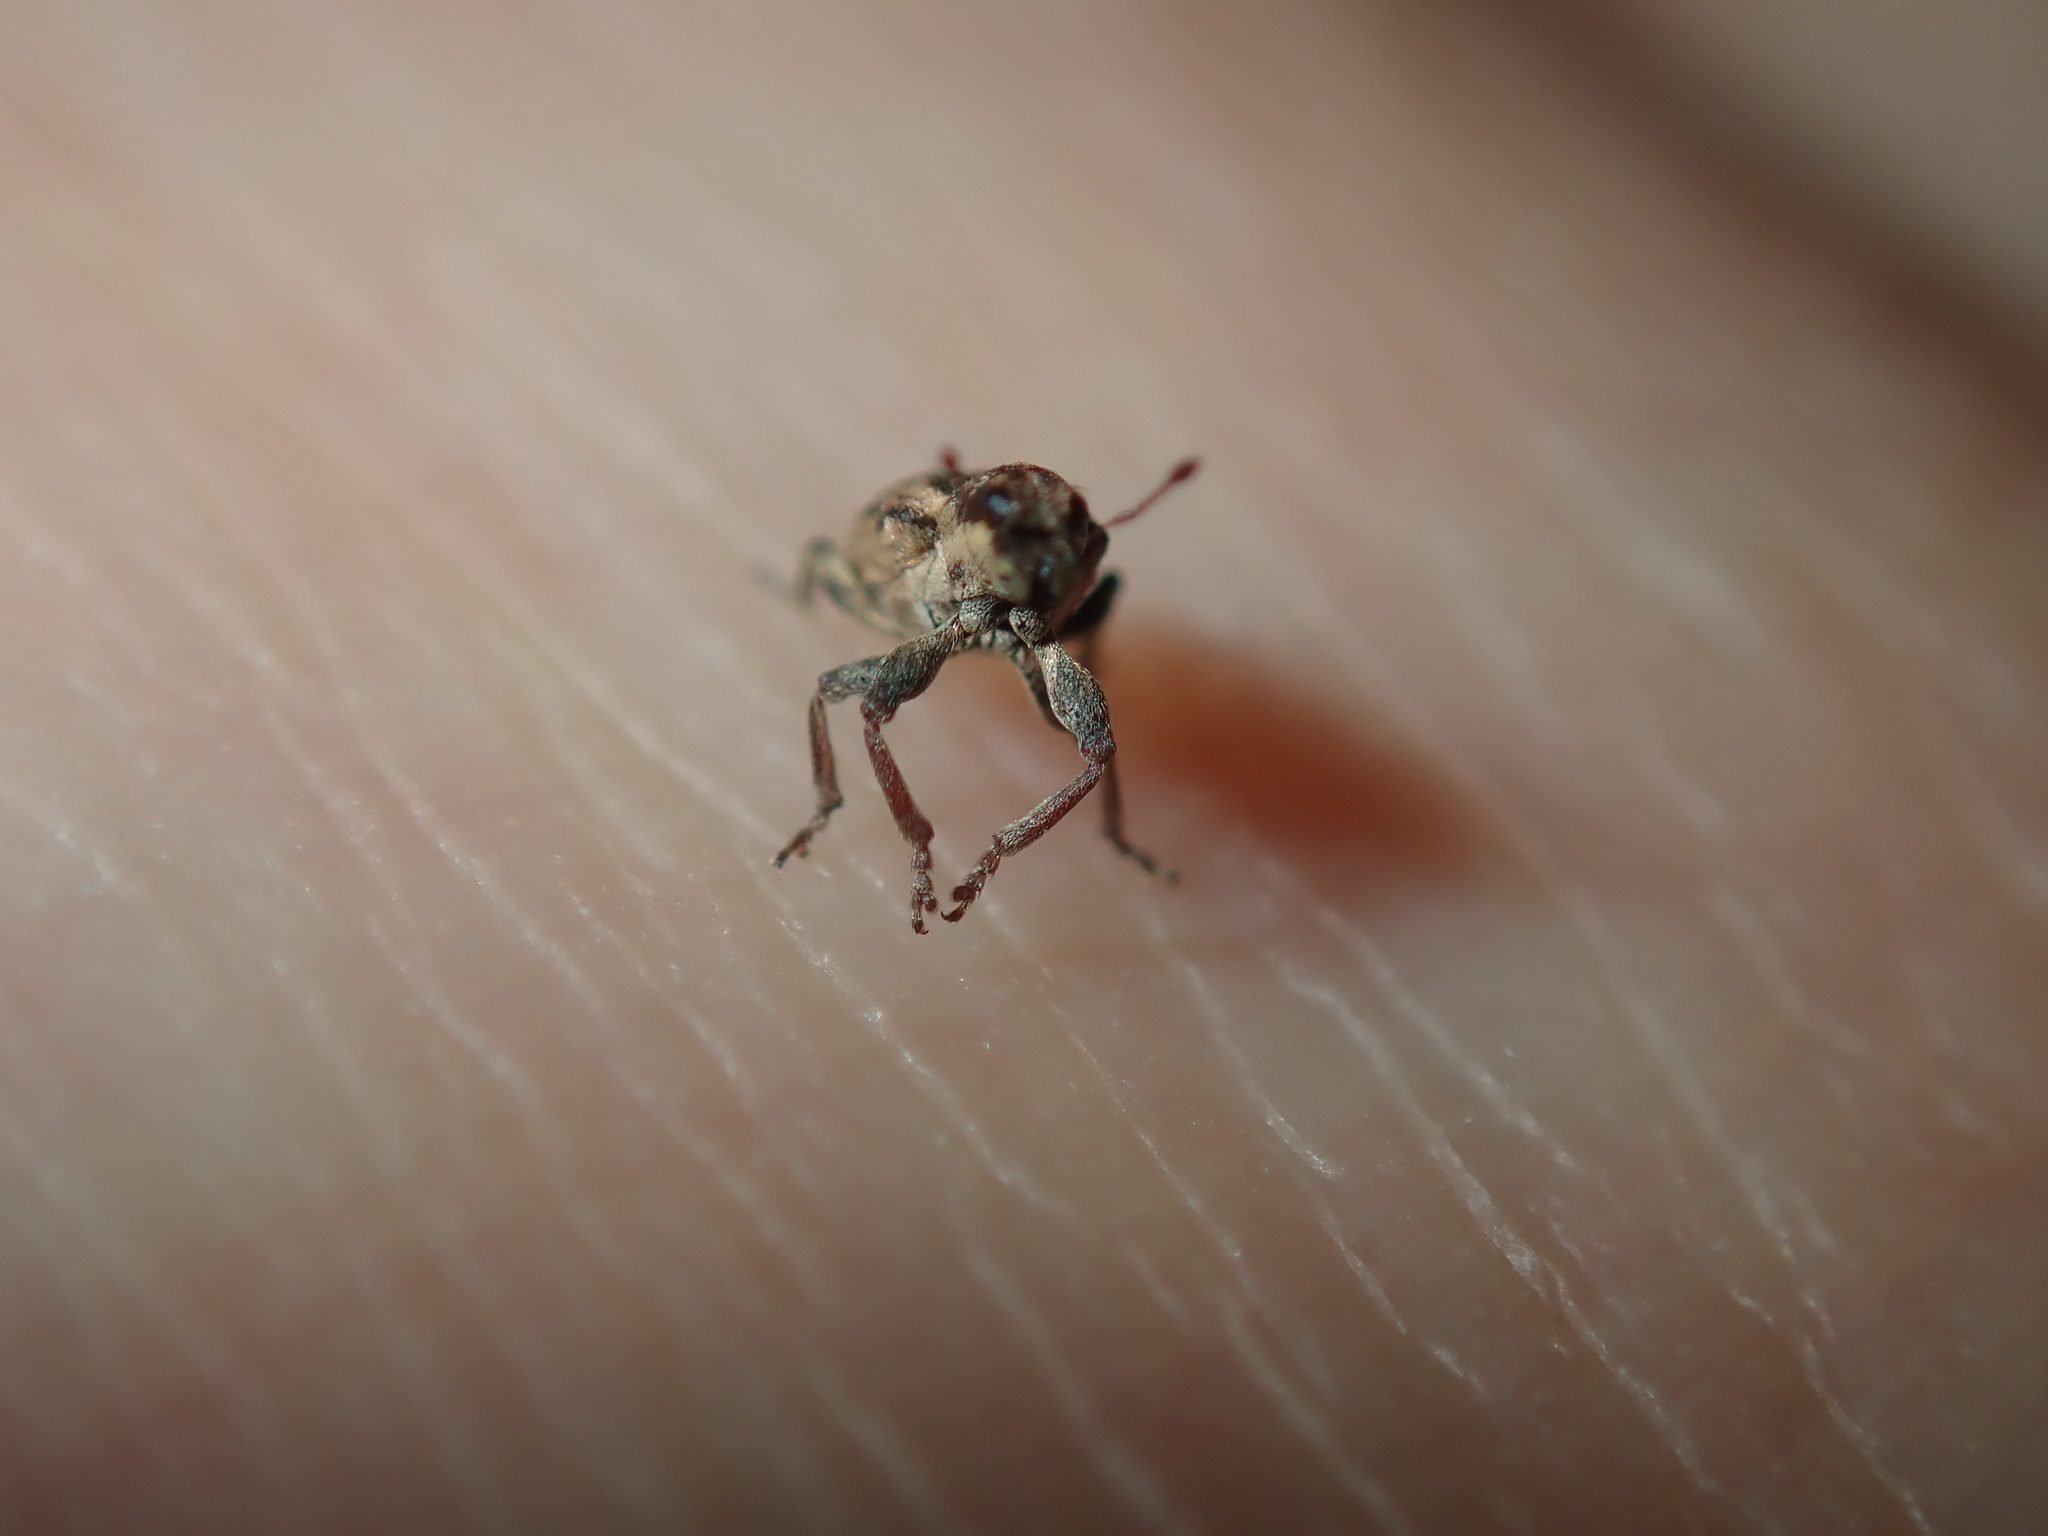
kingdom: Animalia
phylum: Arthropoda
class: Insecta
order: Coleoptera
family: Curculionidae
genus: Sitona
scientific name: Sitona discoideus
